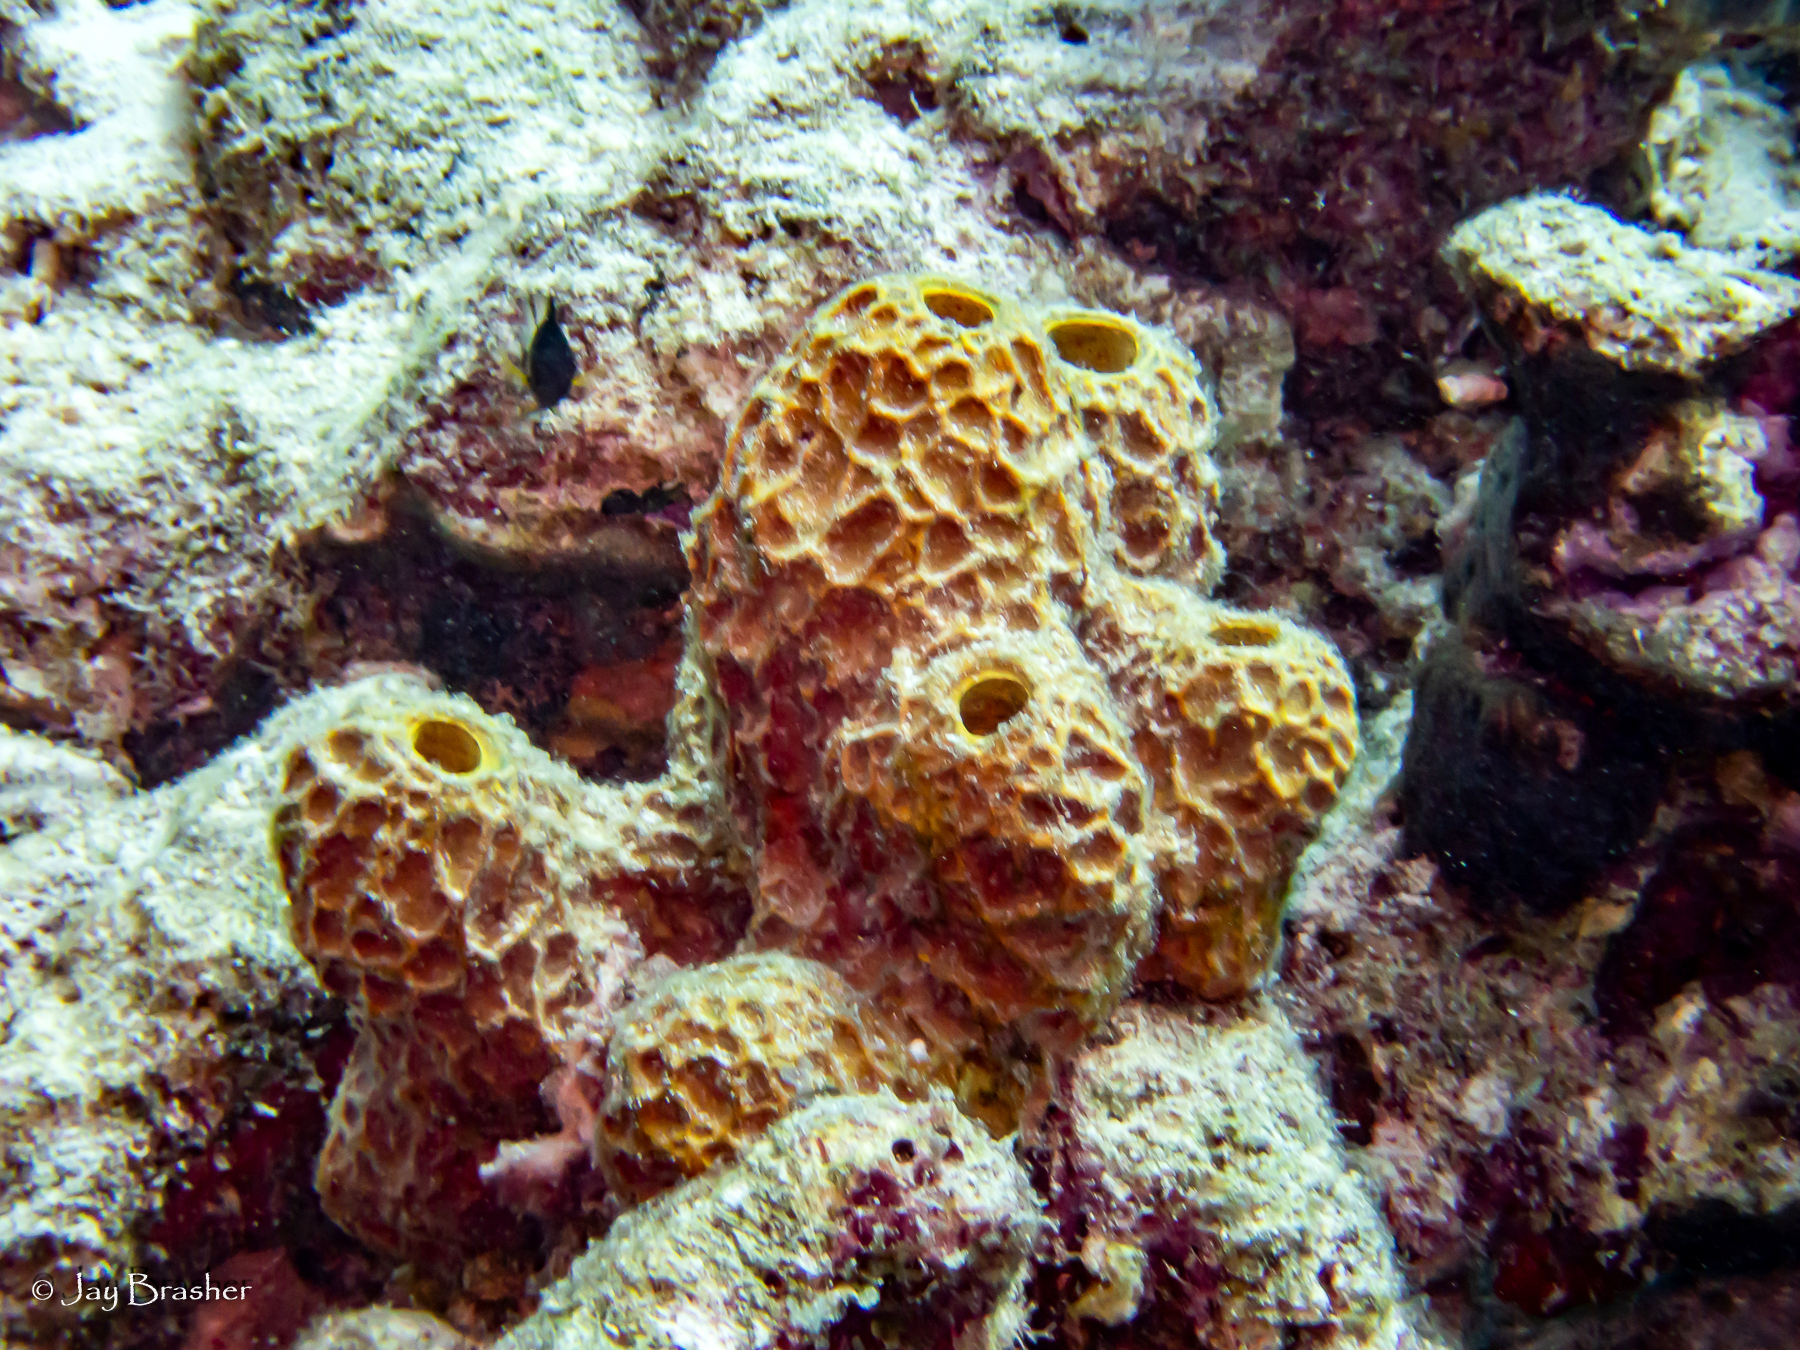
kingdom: Animalia
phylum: Porifera
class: Demospongiae
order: Verongiida
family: Aplysinidae
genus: Verongula
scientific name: Verongula rigida
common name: Pitted sponge
